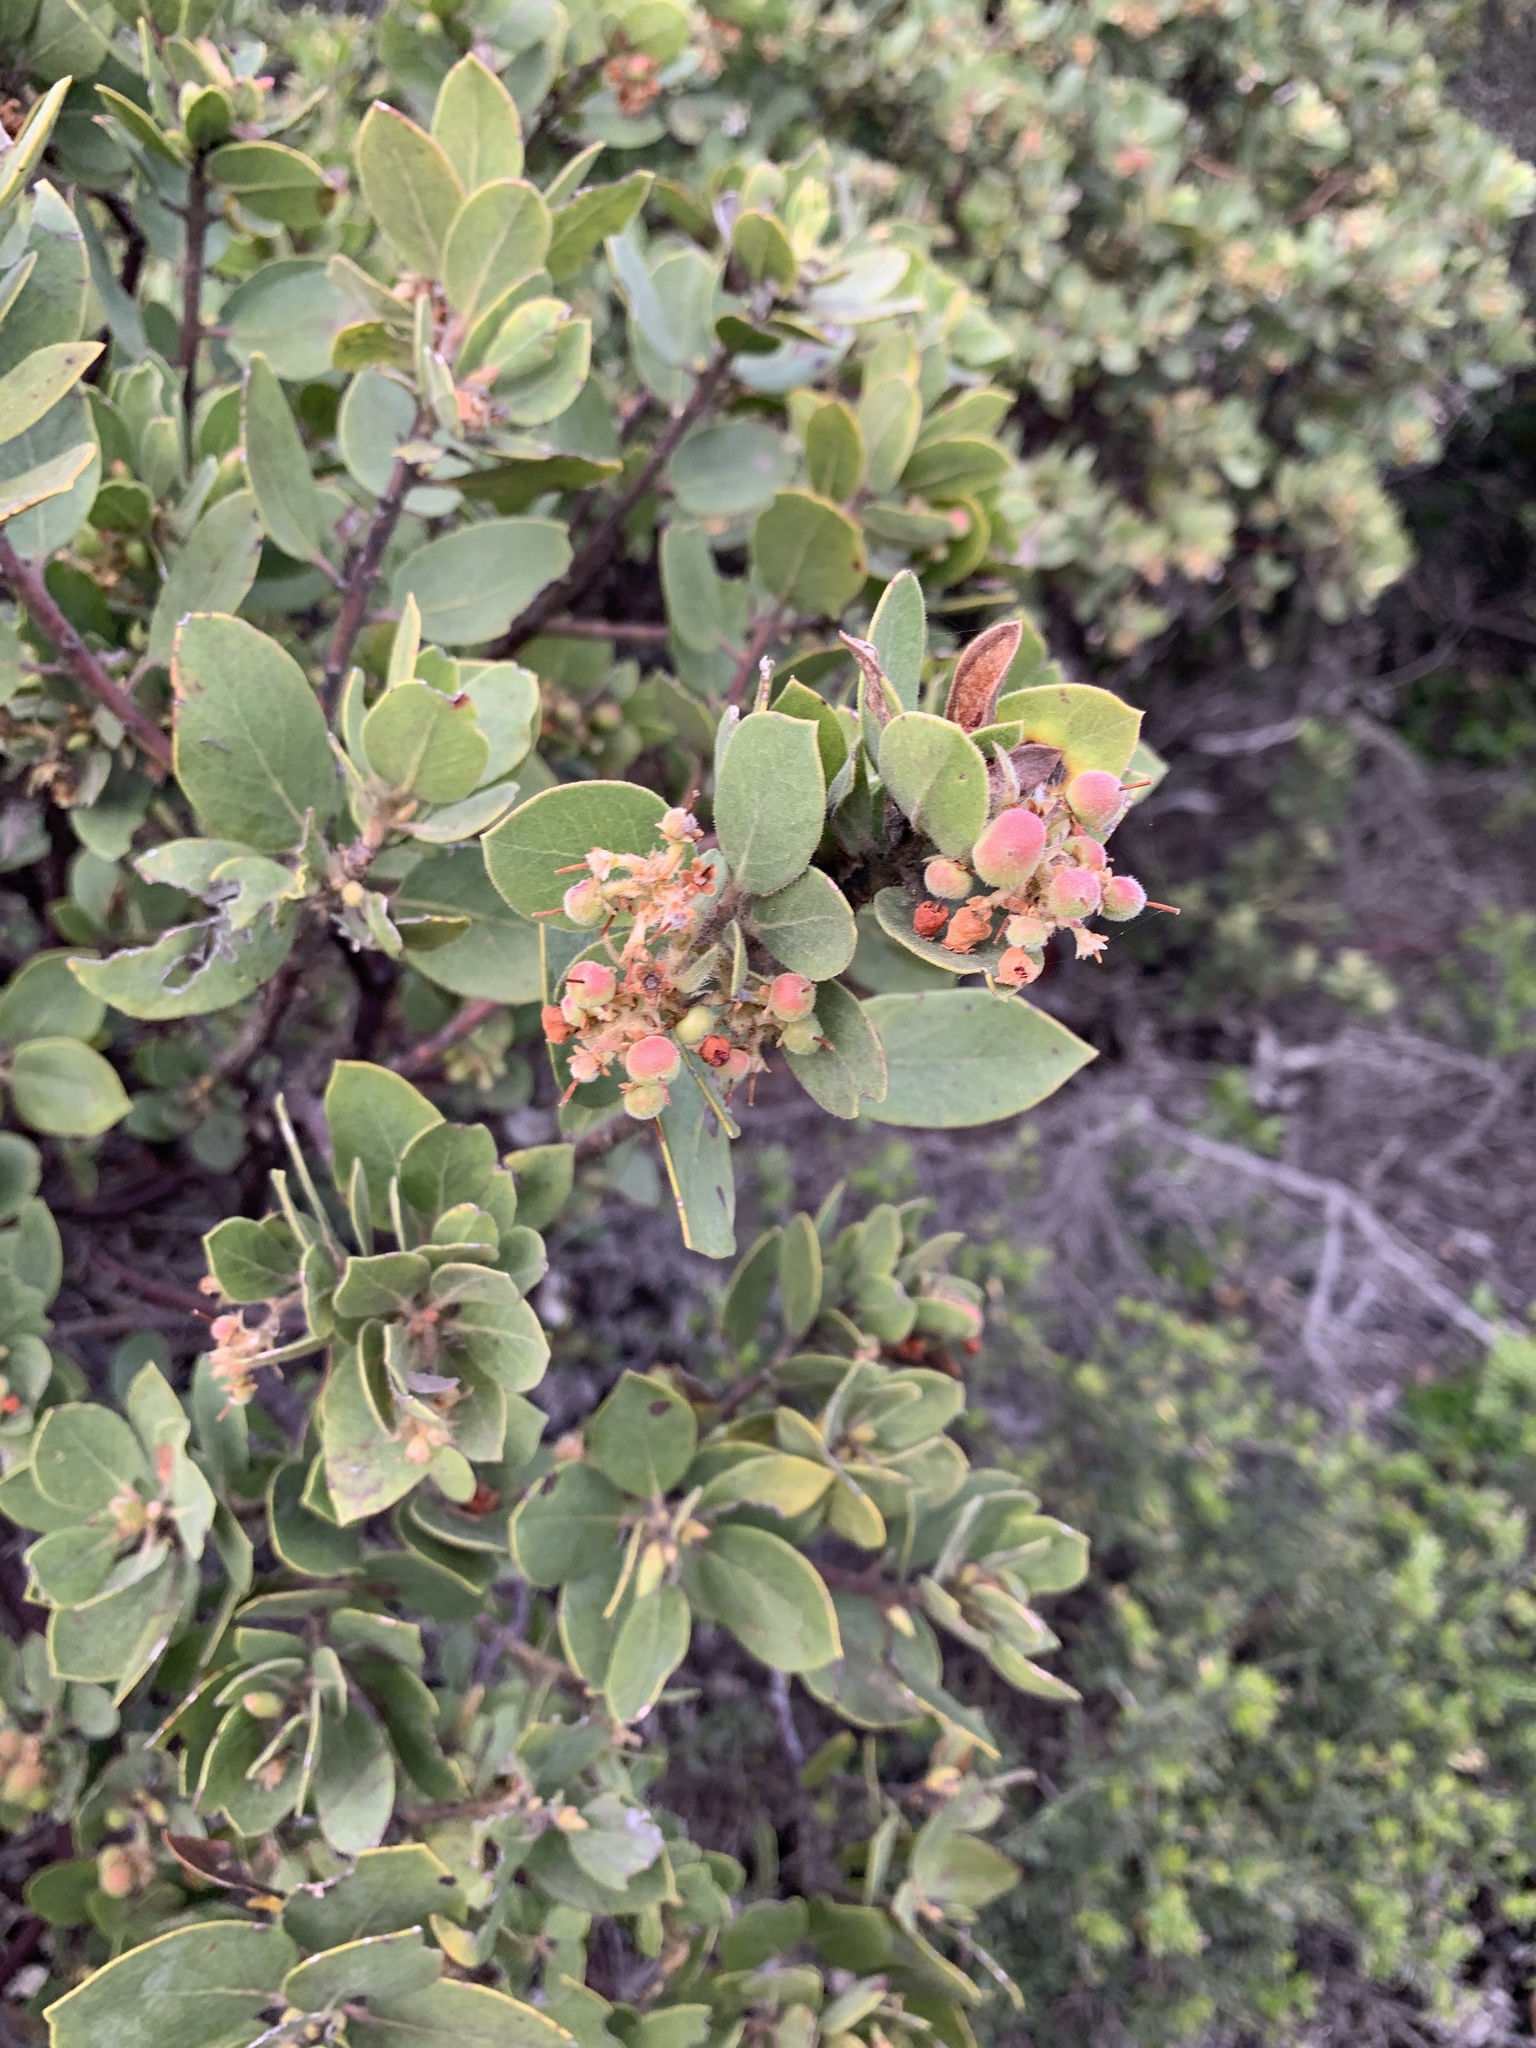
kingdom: Plantae
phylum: Tracheophyta
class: Magnoliopsida
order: Ericales
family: Ericaceae
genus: Arctostaphylos
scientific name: Arctostaphylos glandulosa
